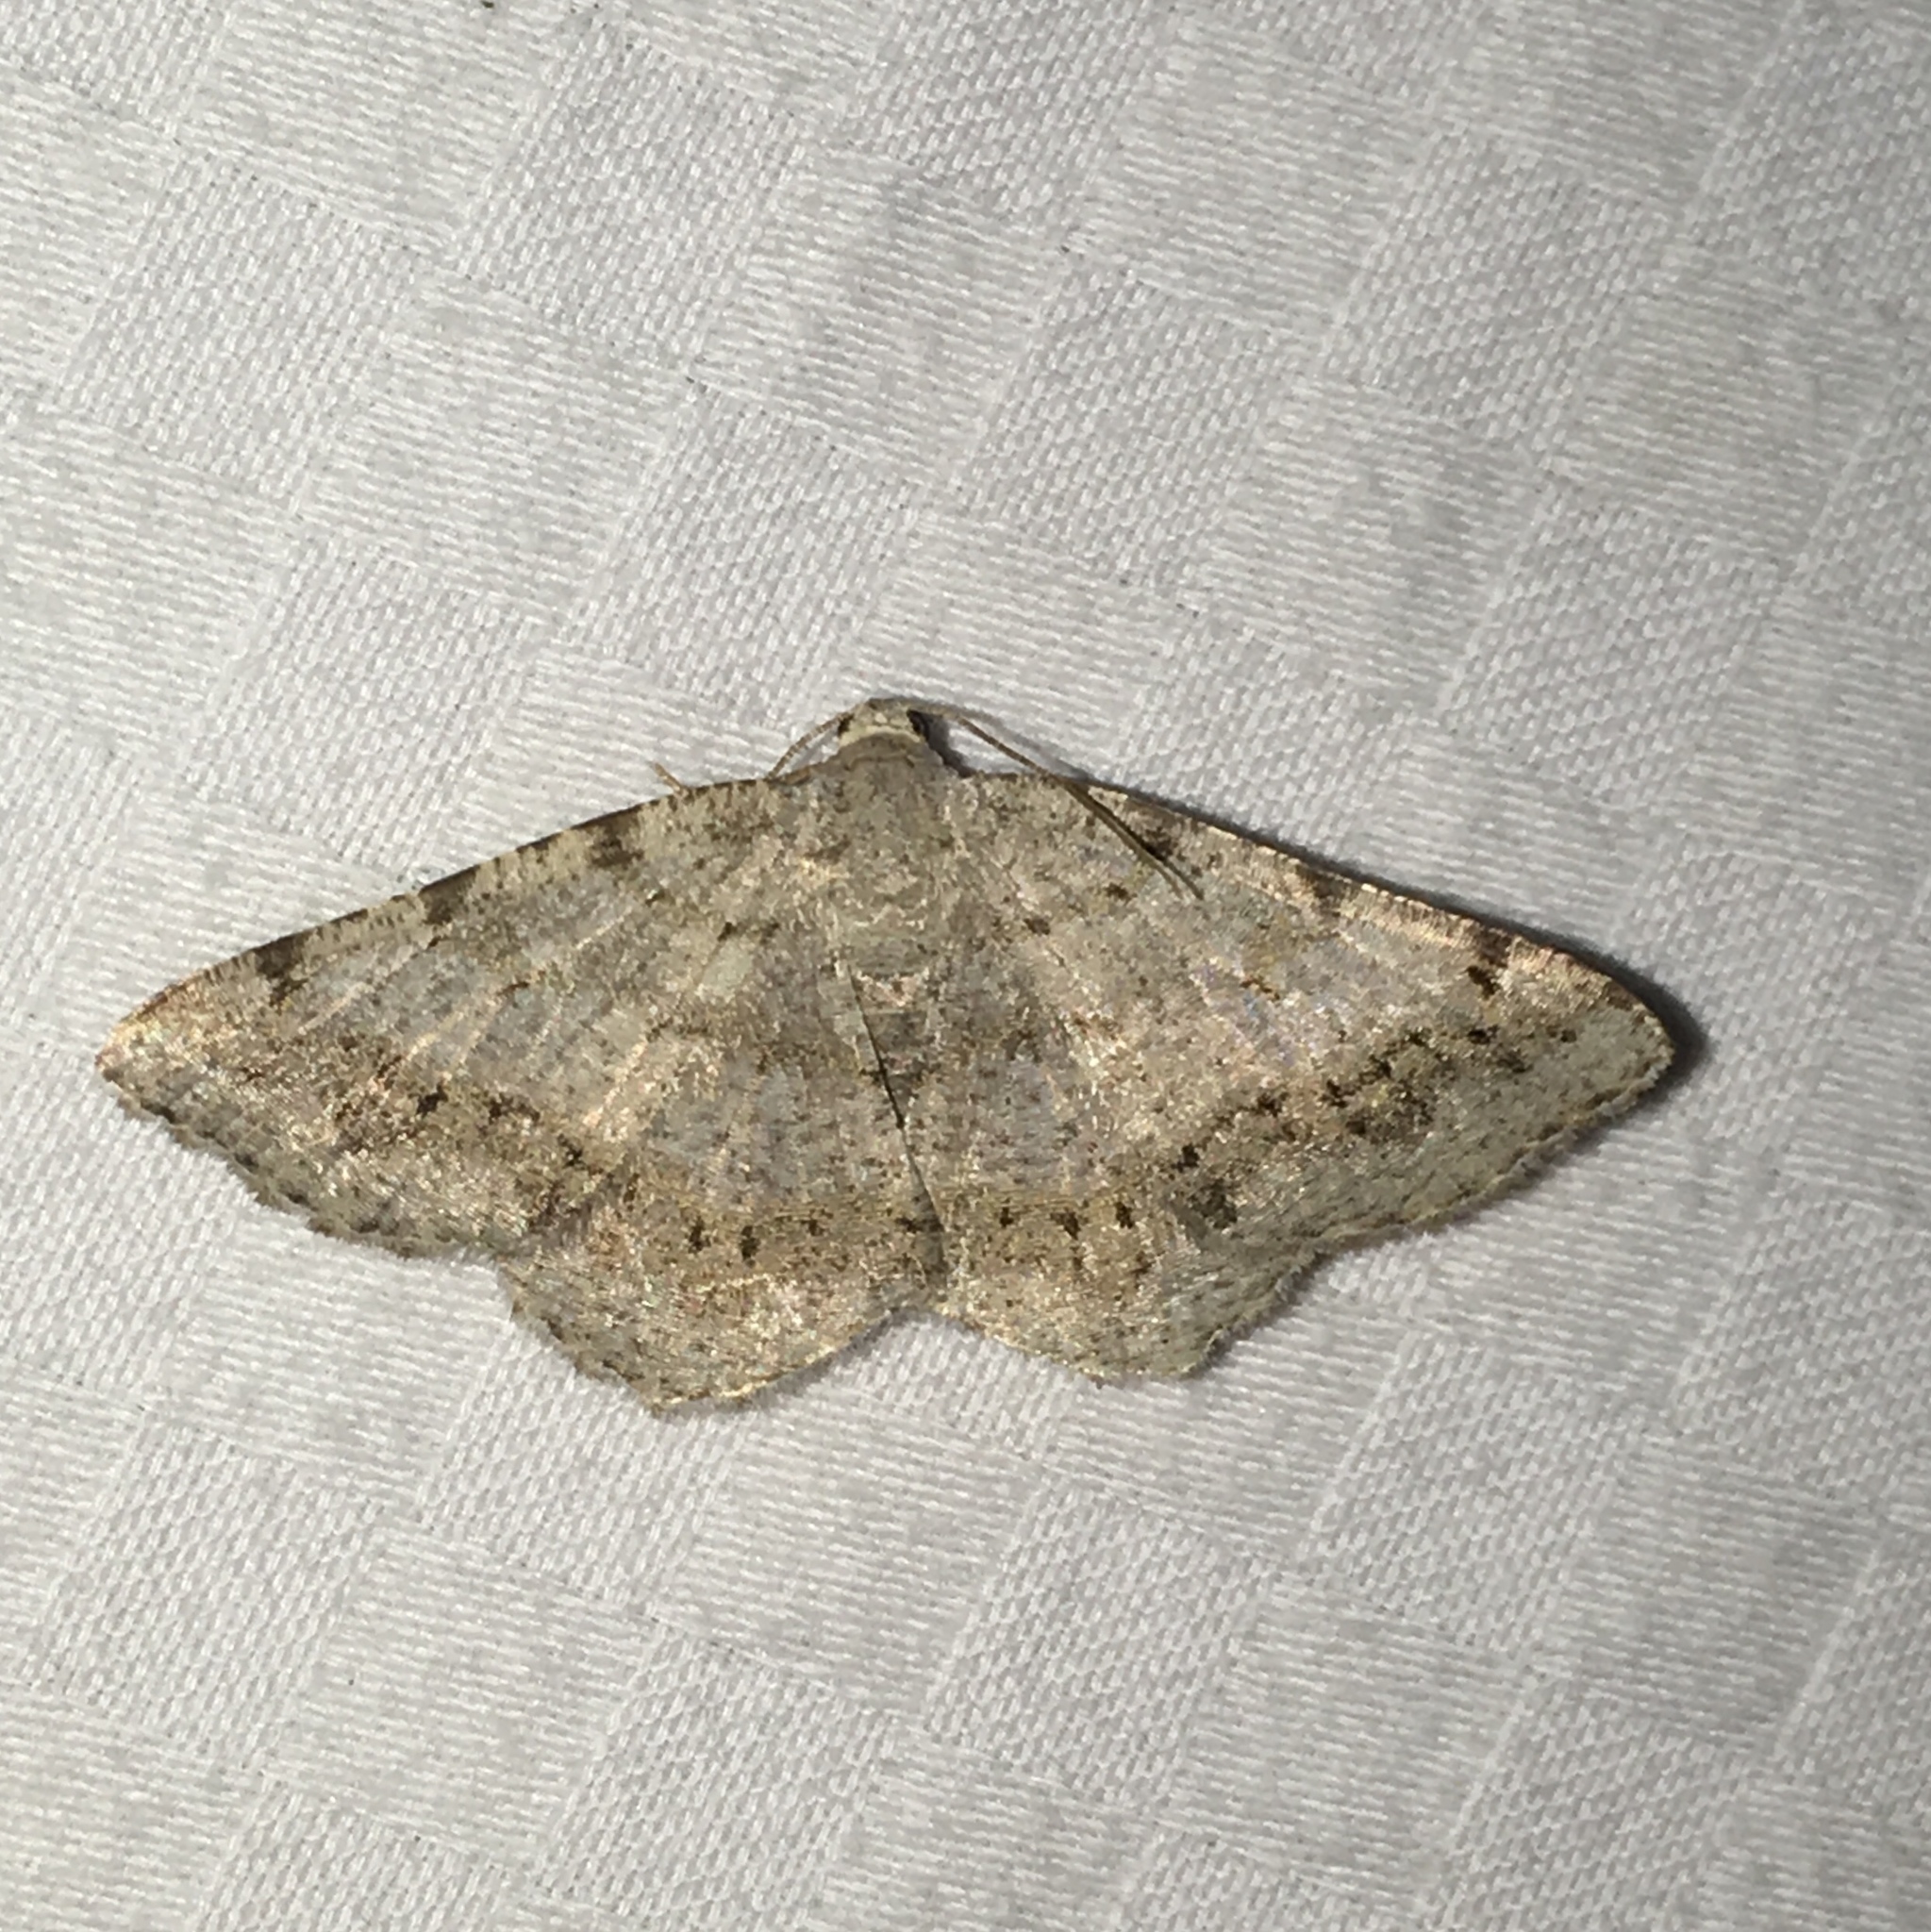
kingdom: Animalia
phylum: Arthropoda
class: Insecta
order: Lepidoptera
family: Geometridae
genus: Digrammia
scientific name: Digrammia ocellinata
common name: Faint-spotted angle
